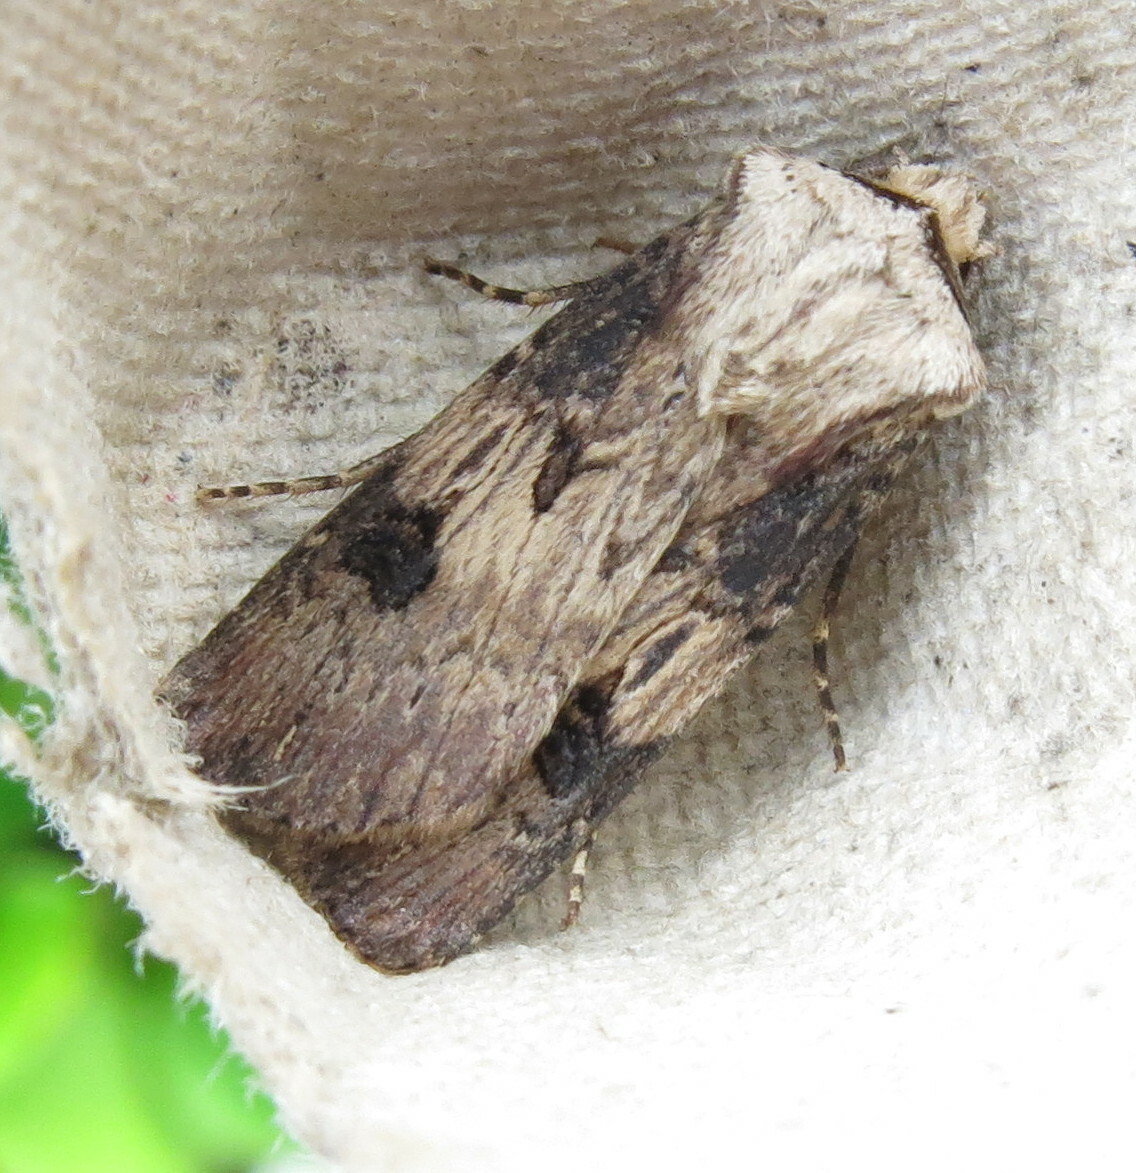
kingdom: Animalia
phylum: Arthropoda
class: Insecta
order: Lepidoptera
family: Noctuidae
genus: Agrotis
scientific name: Agrotis puta
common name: Shuttle-shaped dart
